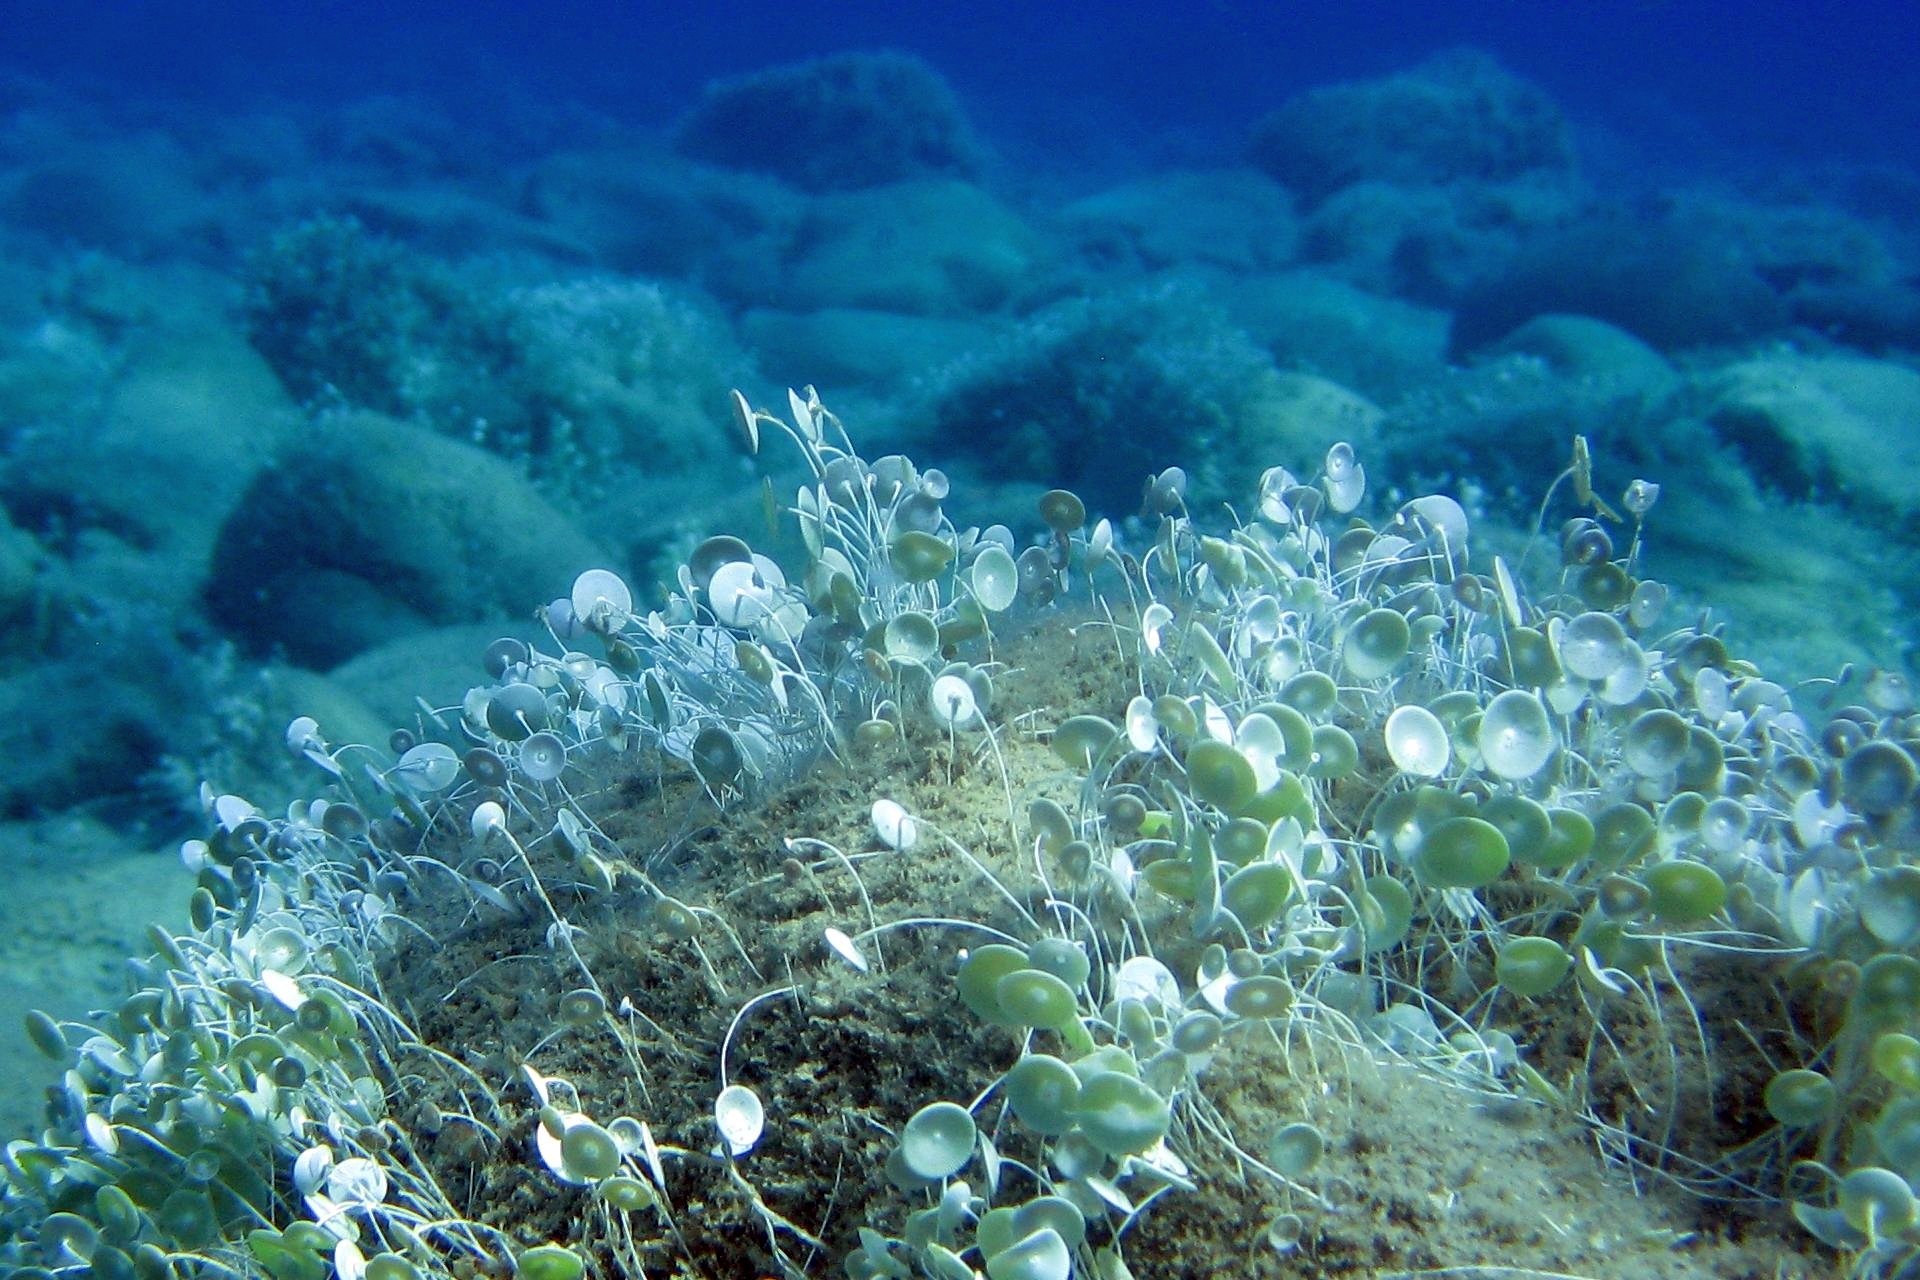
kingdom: Plantae
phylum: Chlorophyta
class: Ulvophyceae
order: Dasycladales
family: Polyphysaceae
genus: Acetabularia
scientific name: Acetabularia acetabulum
